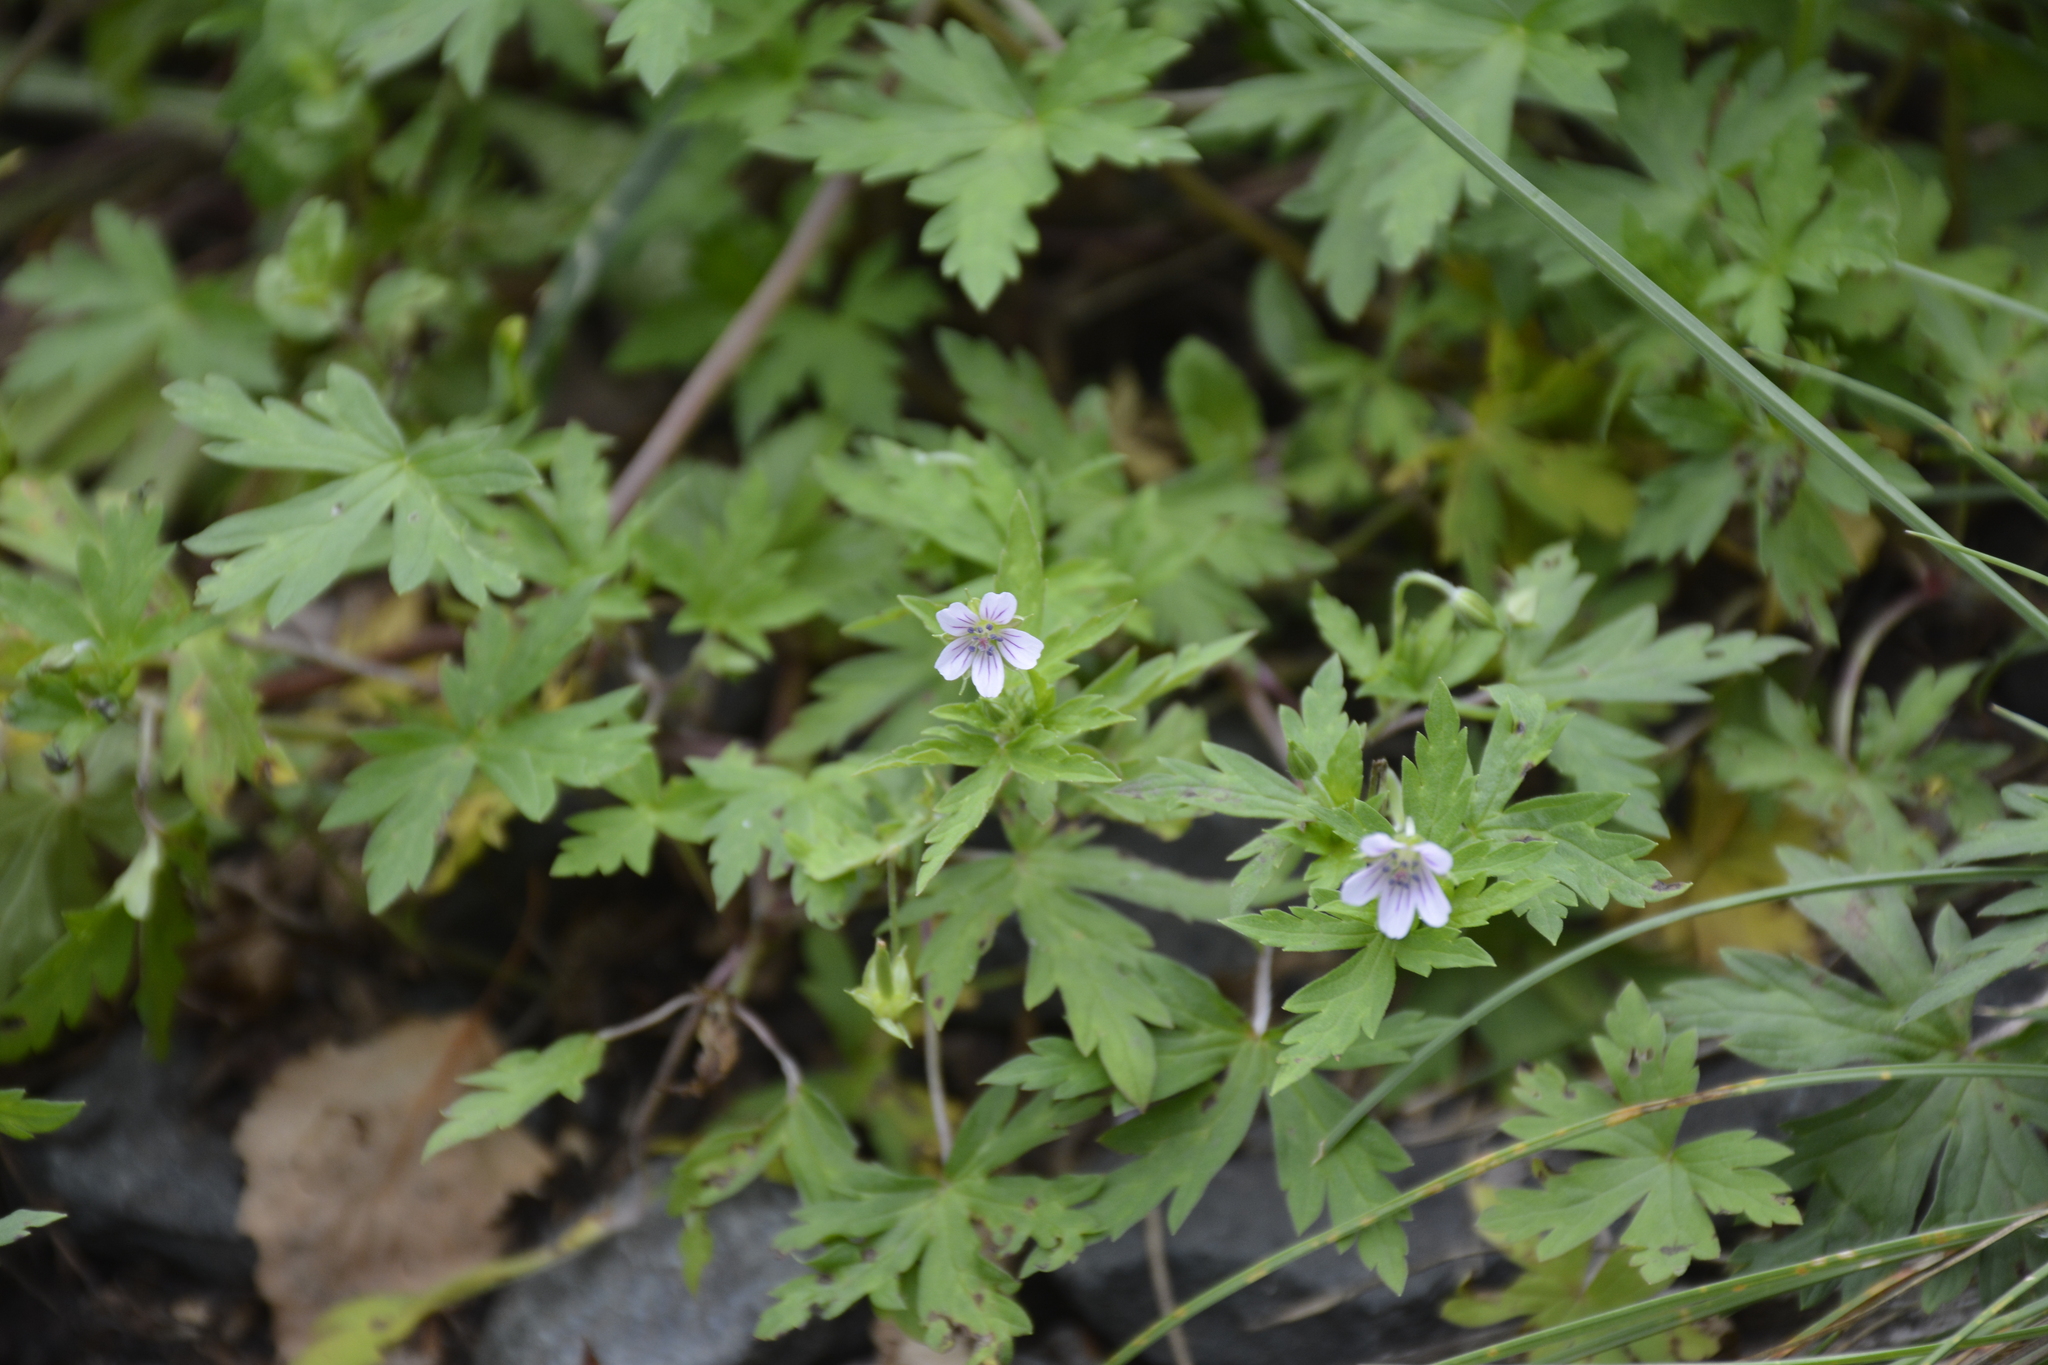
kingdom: Plantae
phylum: Tracheophyta
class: Magnoliopsida
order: Geraniales
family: Geraniaceae
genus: Geranium
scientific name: Geranium sibiricum
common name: Siberian crane's-bill
